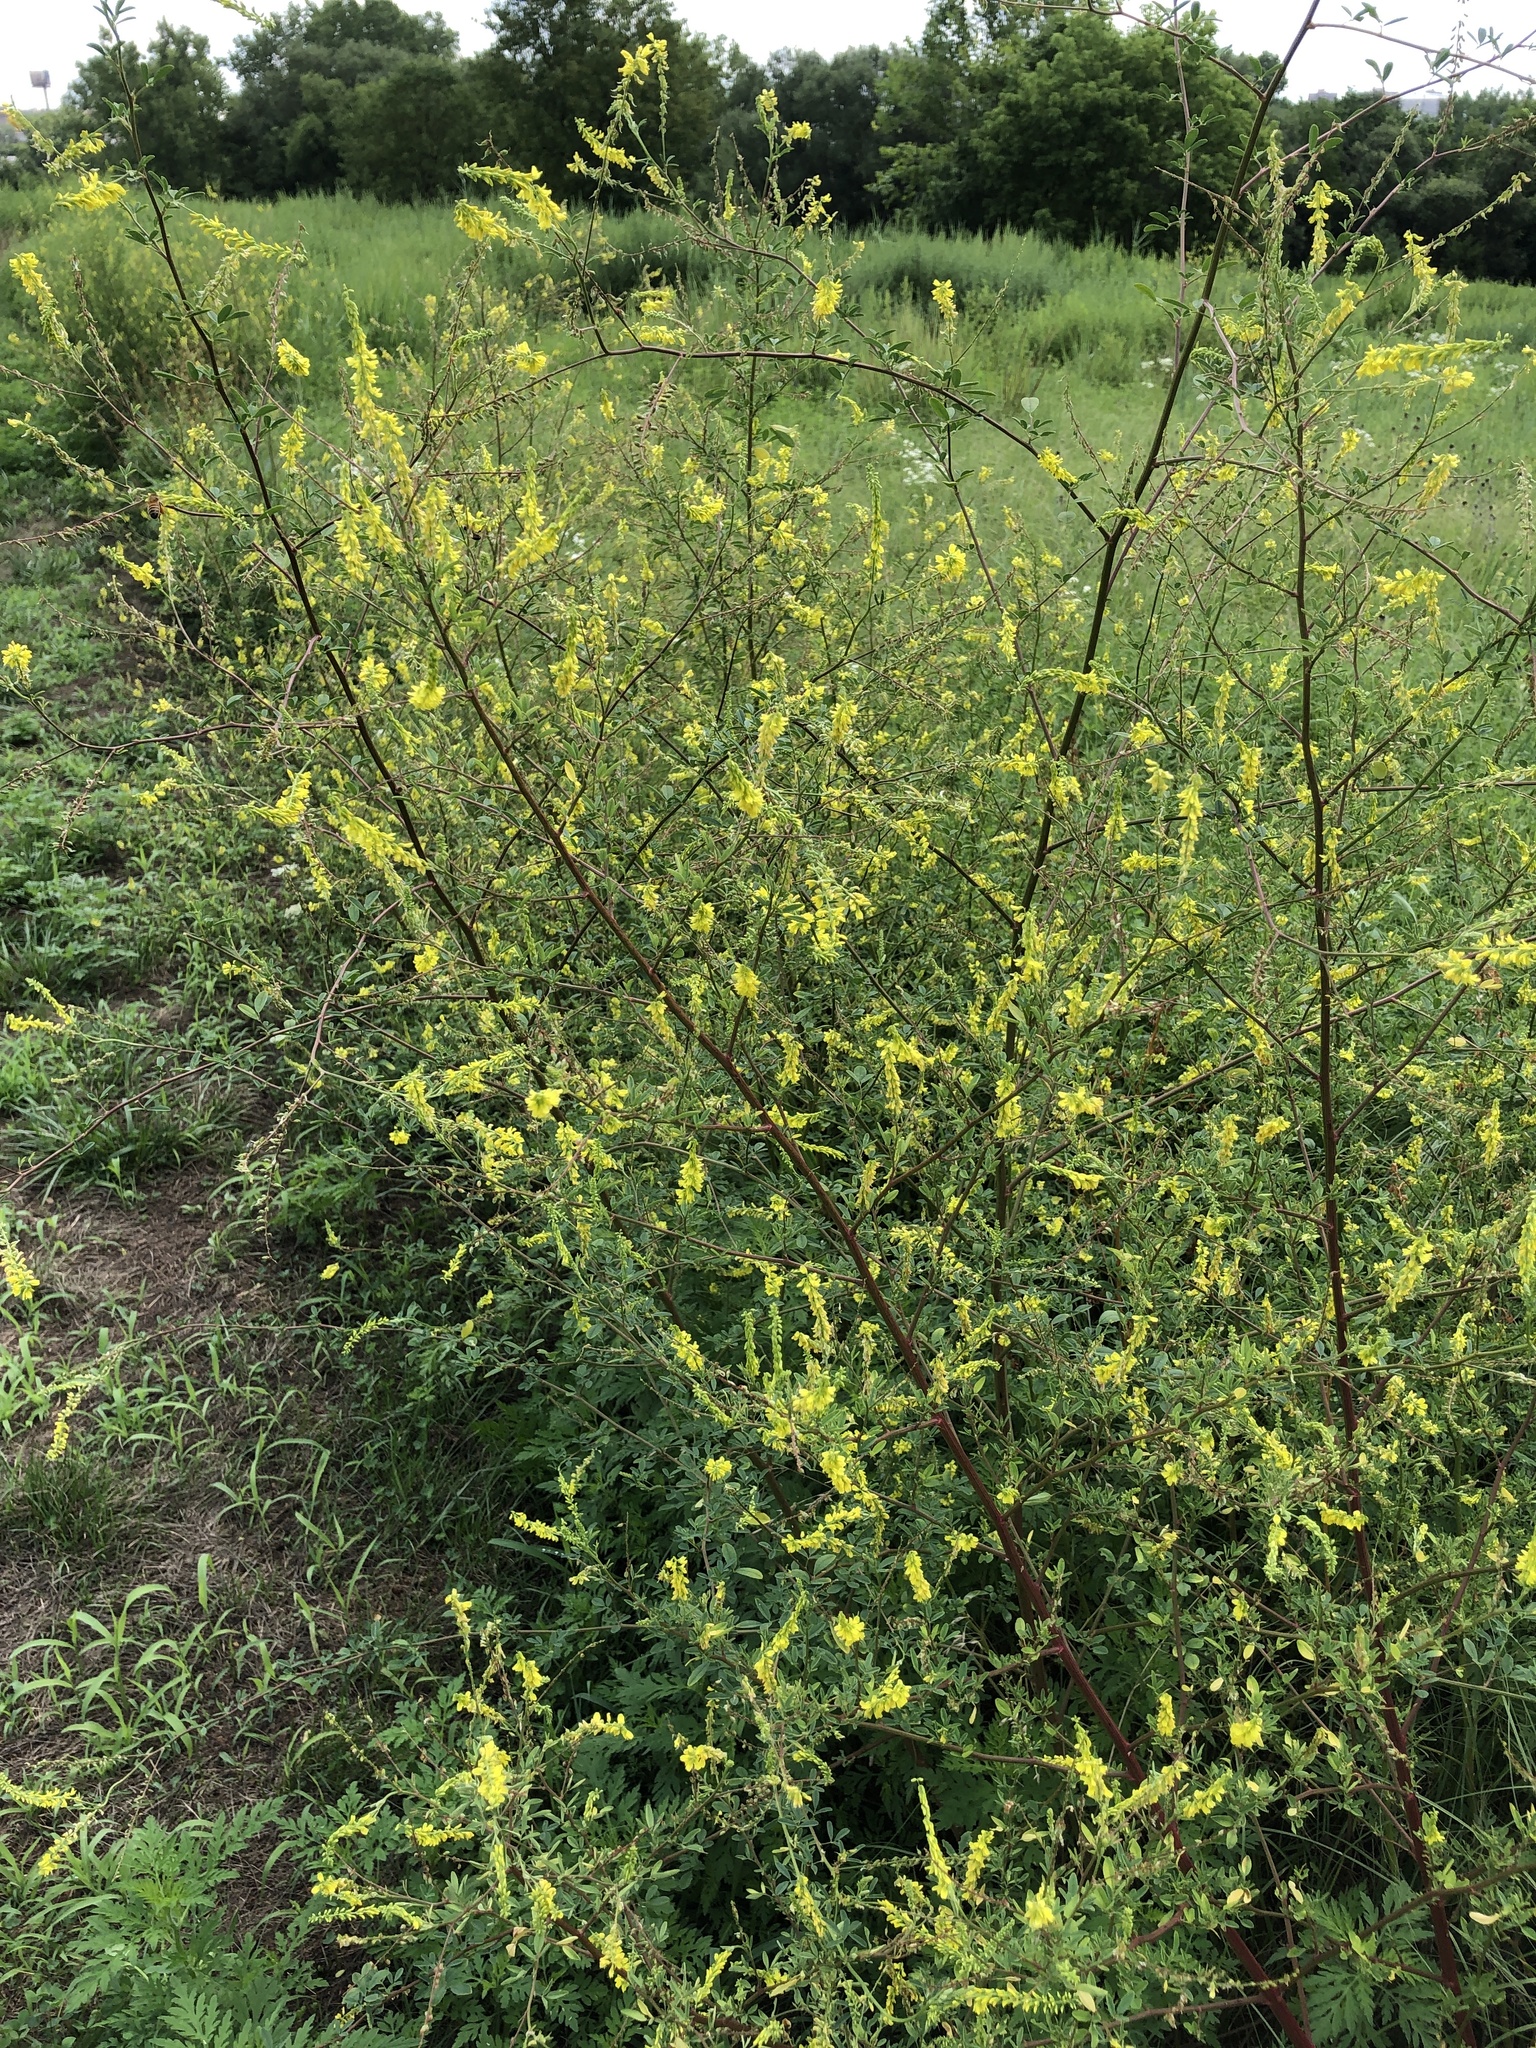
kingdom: Plantae
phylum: Tracheophyta
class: Magnoliopsida
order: Fabales
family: Fabaceae
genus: Melilotus
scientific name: Melilotus officinalis
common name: Sweetclover
